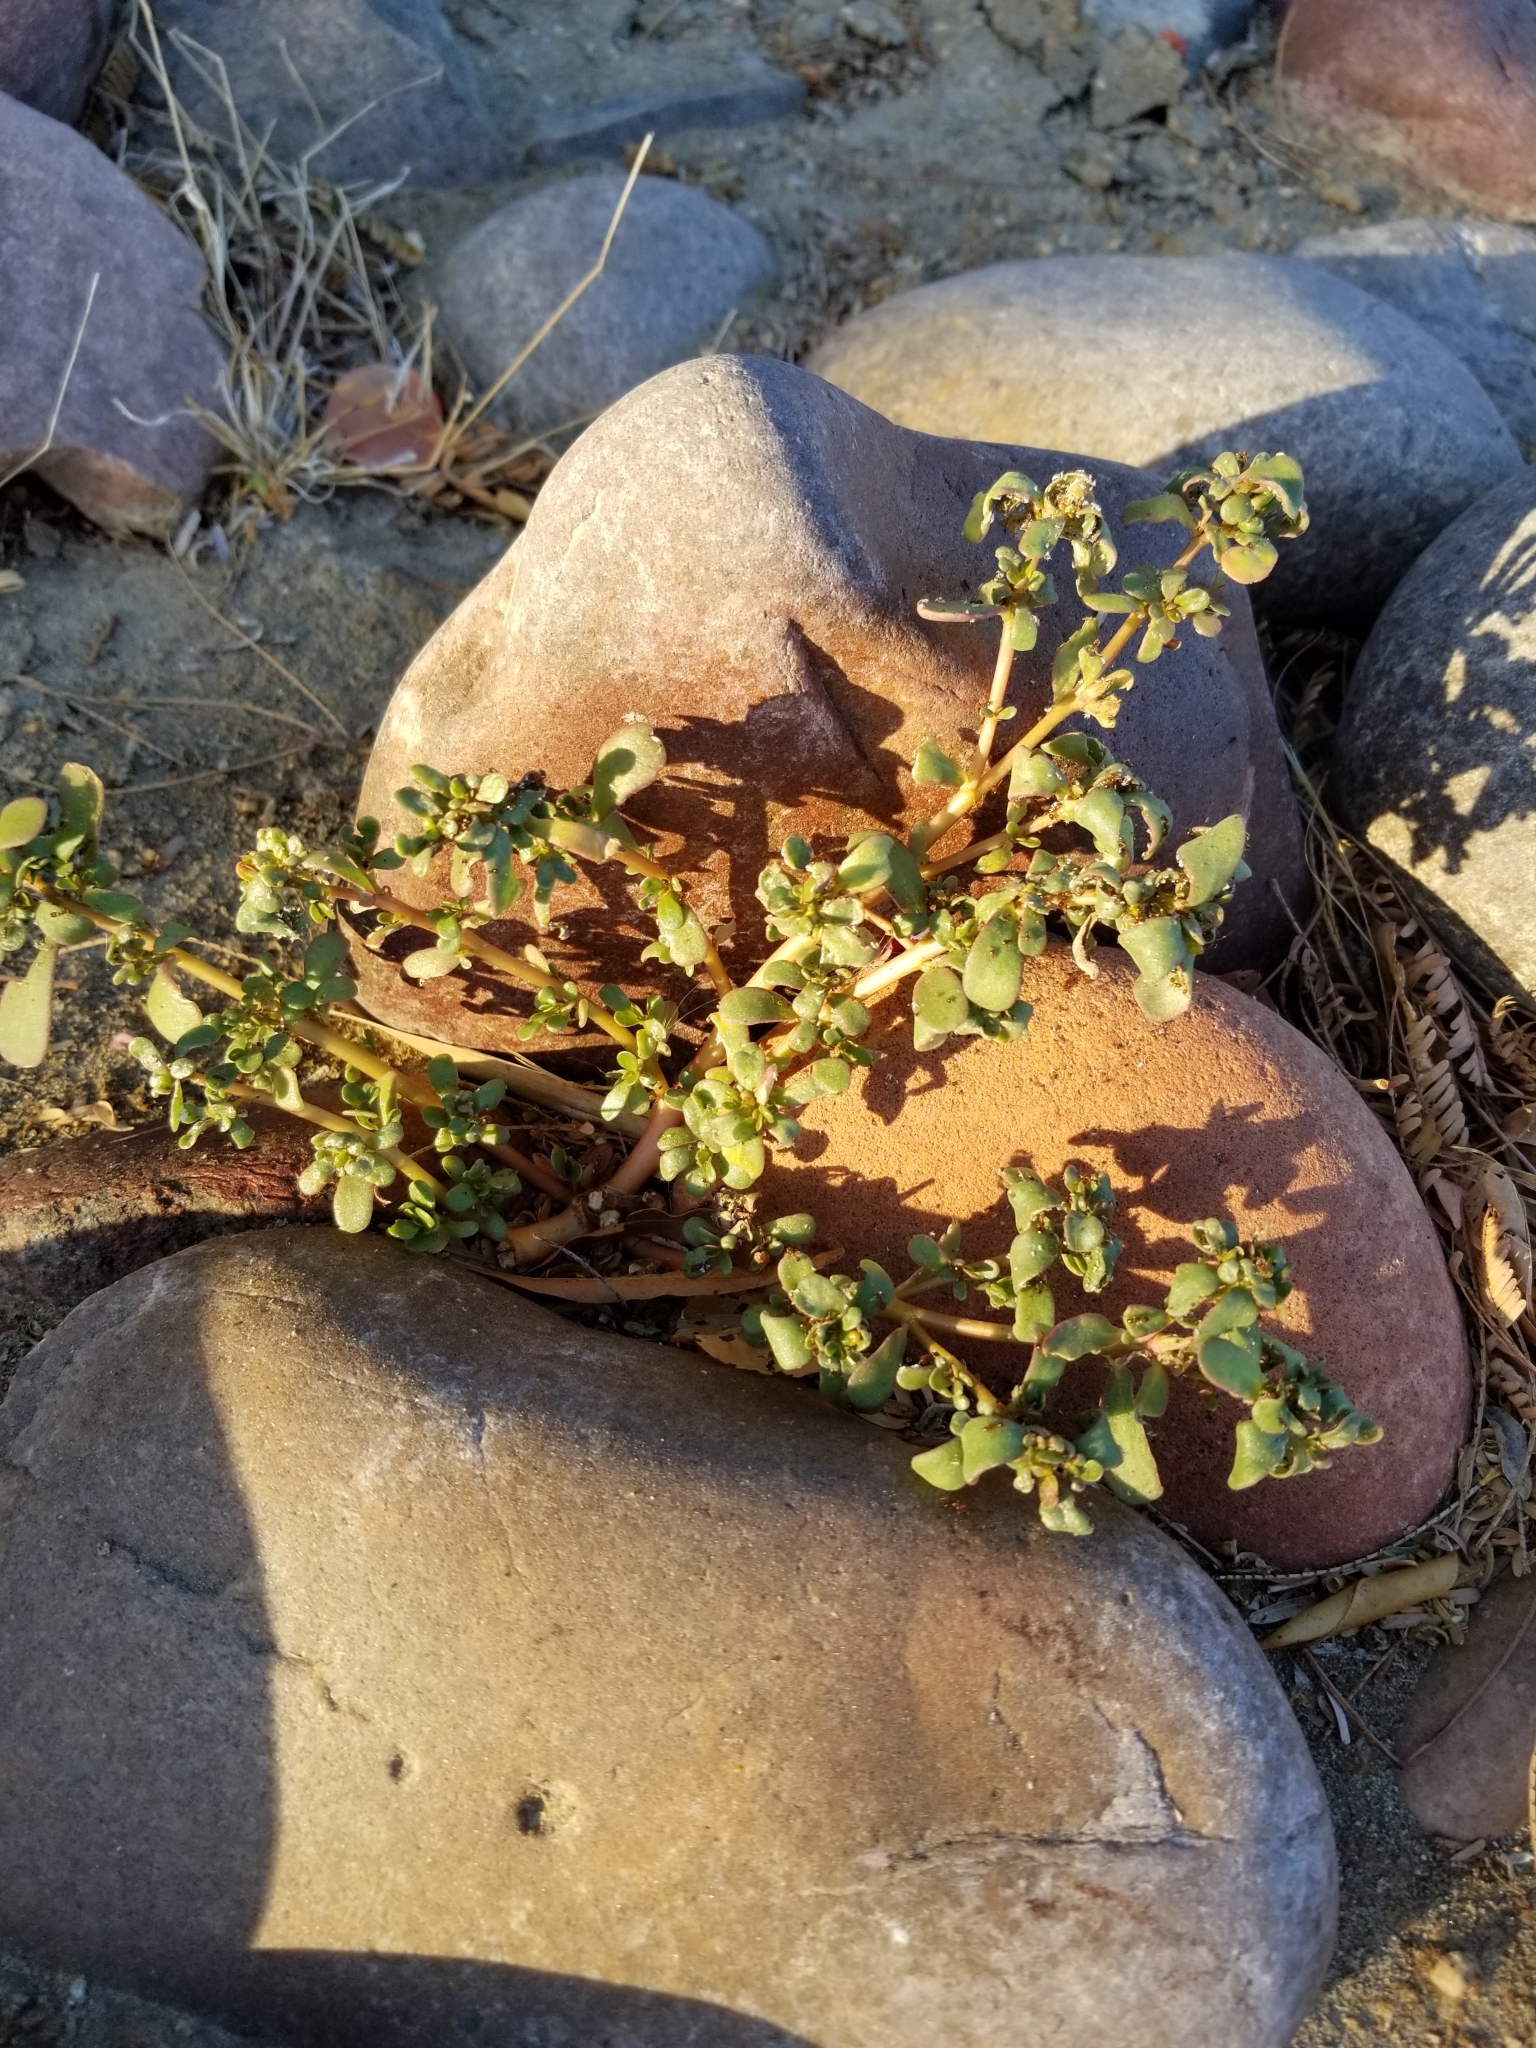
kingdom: Plantae
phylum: Tracheophyta
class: Magnoliopsida
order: Caryophyllales
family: Portulacaceae
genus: Portulaca
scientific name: Portulaca oleracea
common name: Common purslane
